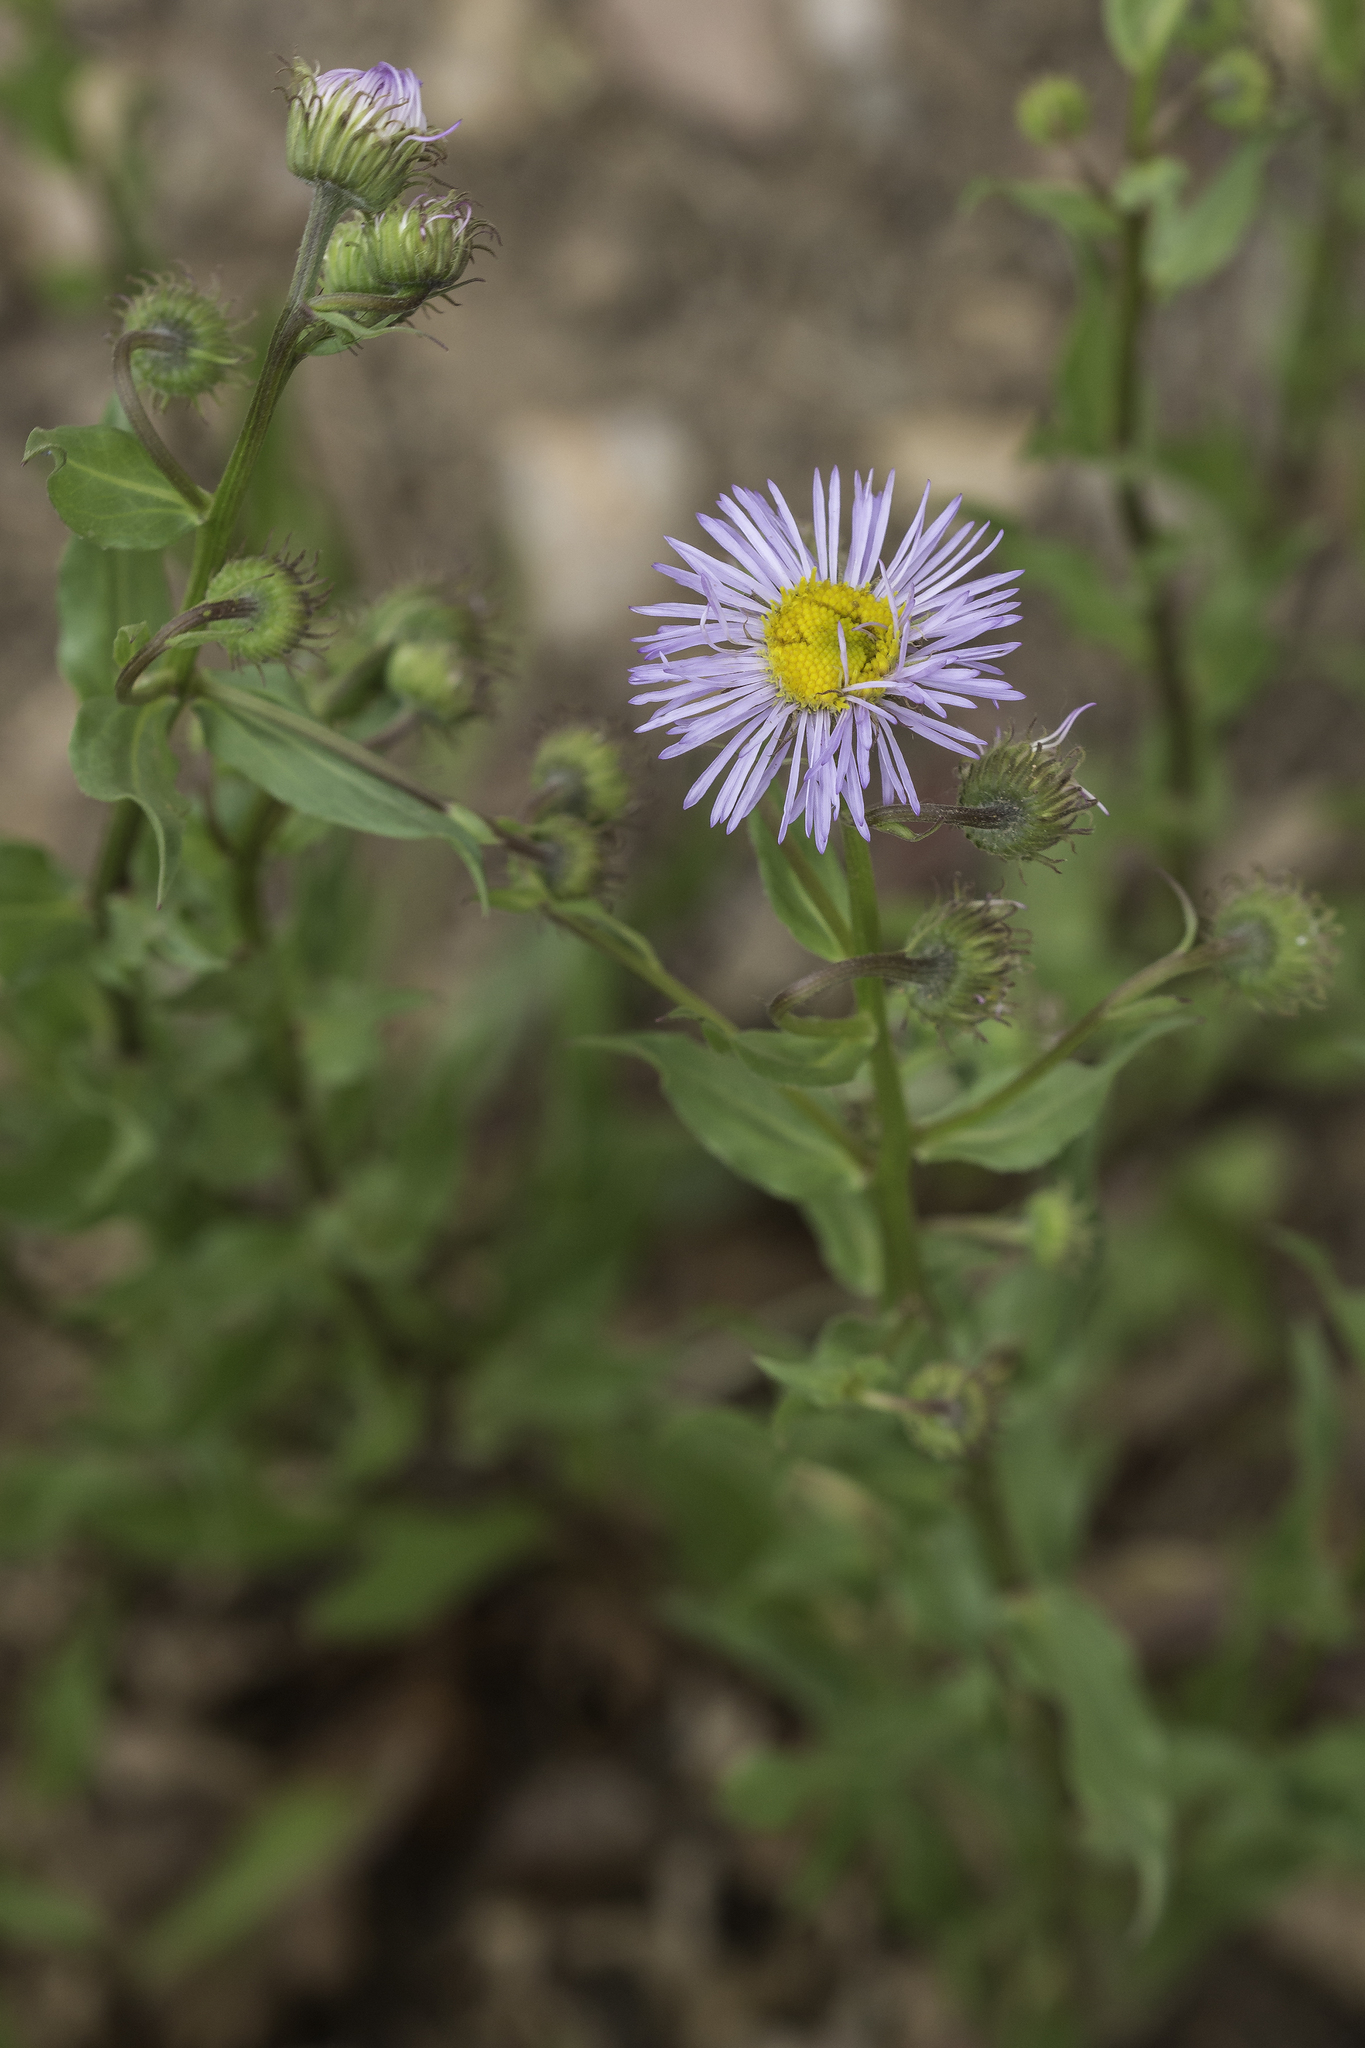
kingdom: Plantae
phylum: Tracheophyta
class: Magnoliopsida
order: Asterales
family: Asteraceae
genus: Erigeron
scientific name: Erigeron speciosus
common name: Aspen fleabane
